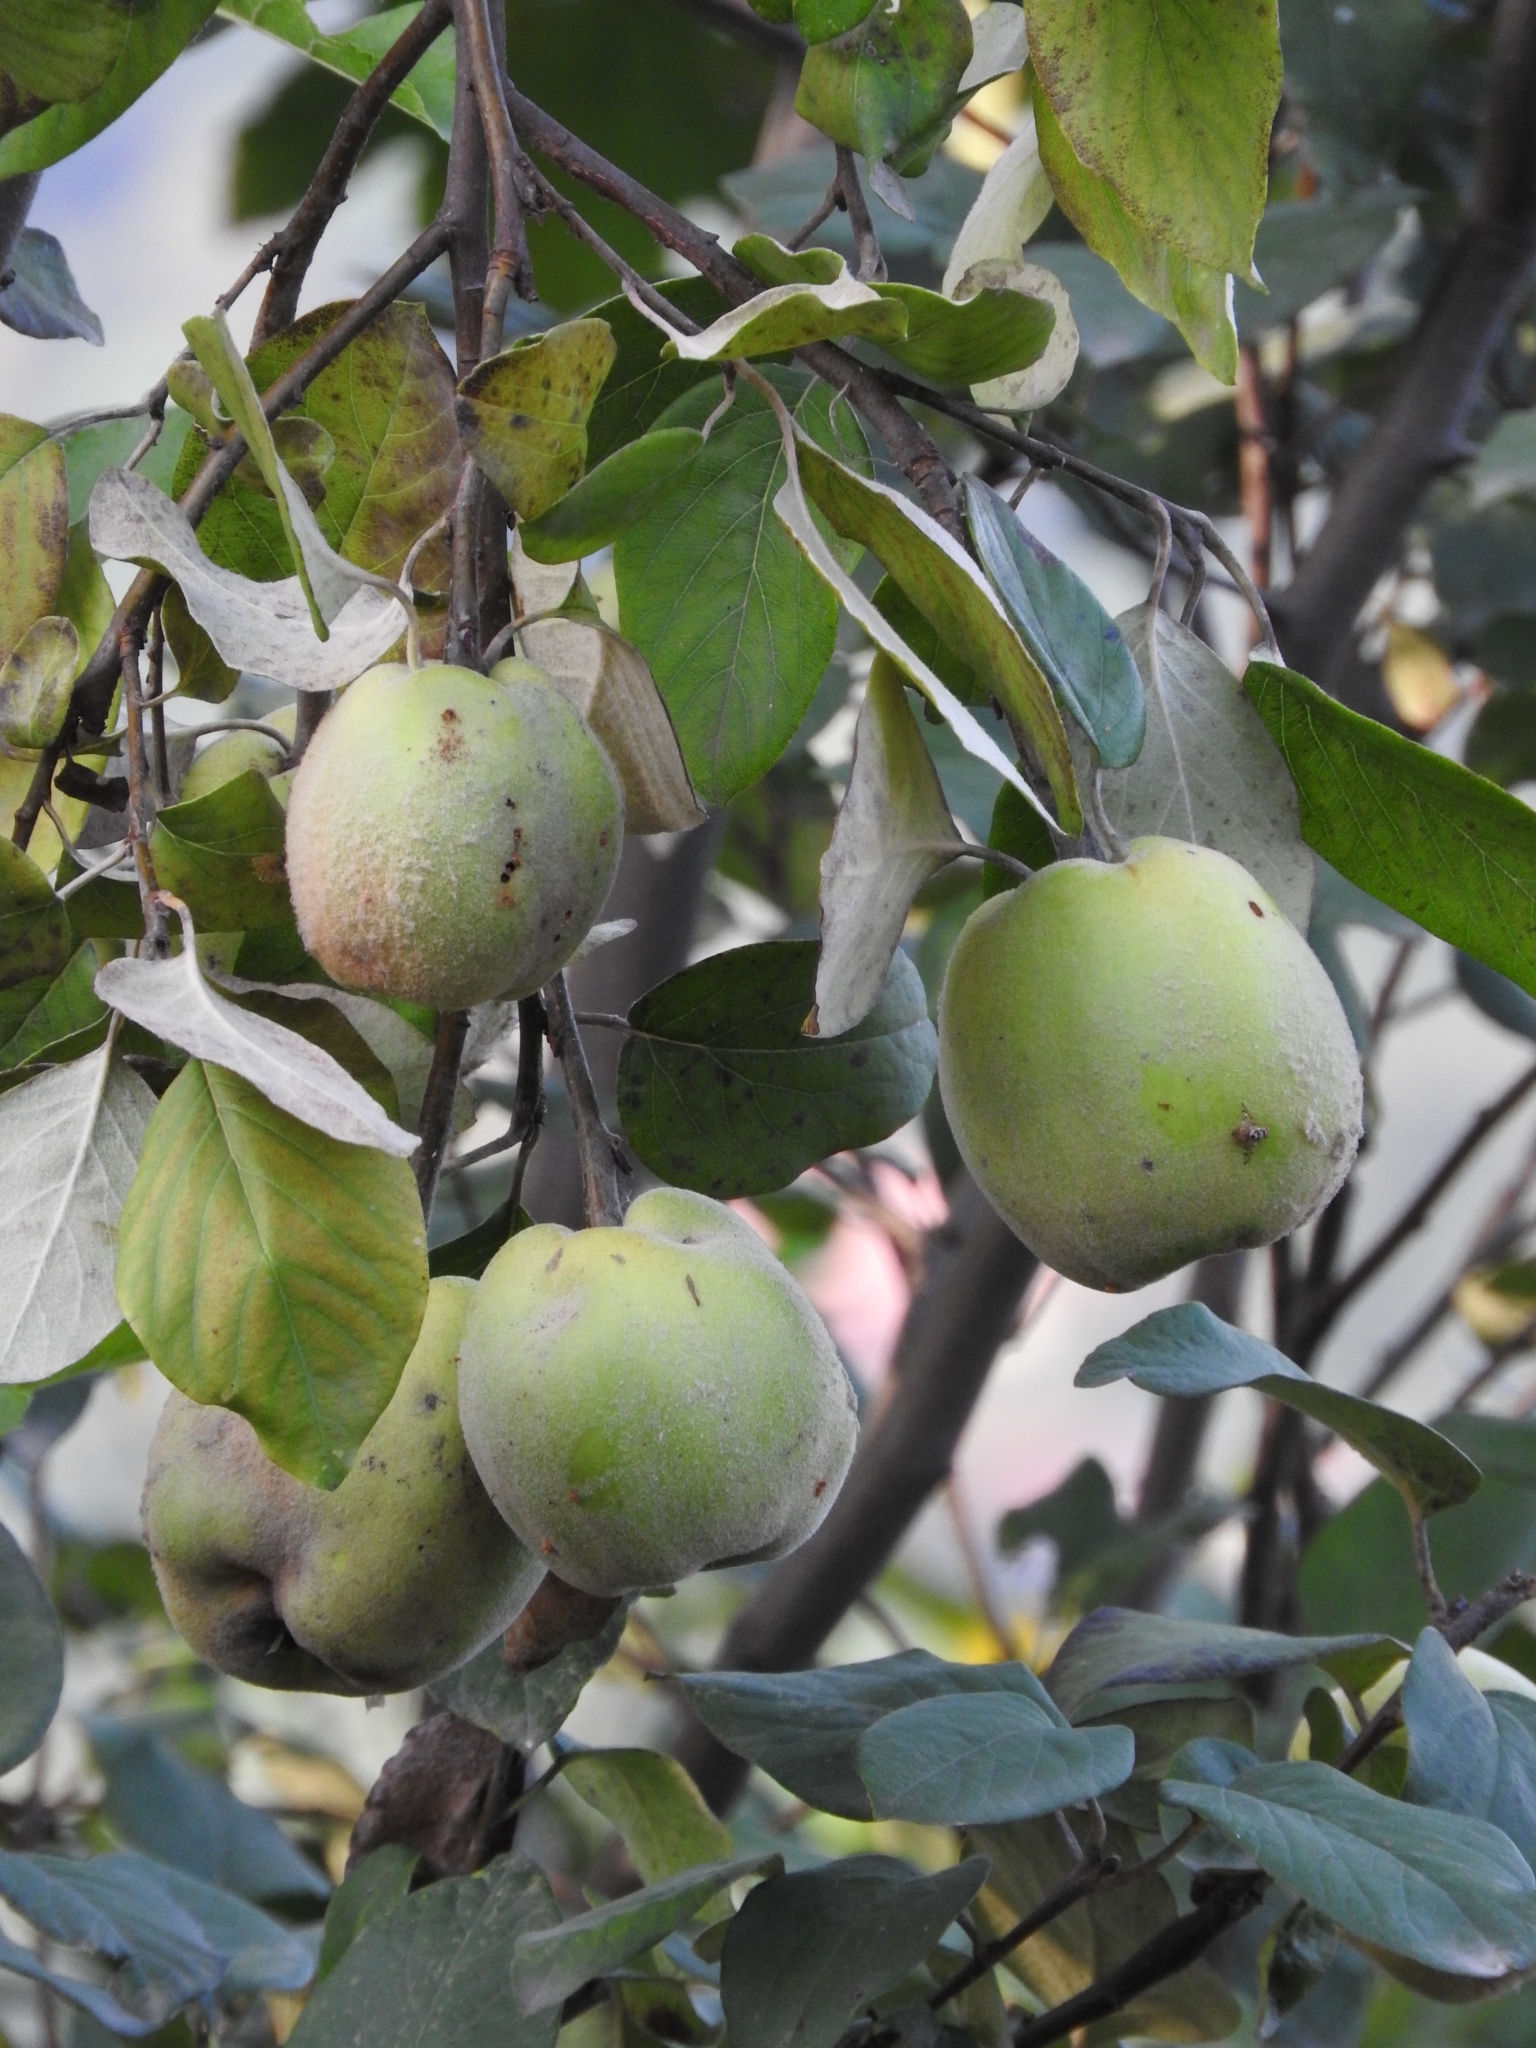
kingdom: Plantae
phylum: Tracheophyta
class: Magnoliopsida
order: Rosales
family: Rosaceae
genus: Cydonia
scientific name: Cydonia oblonga
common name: Quince
